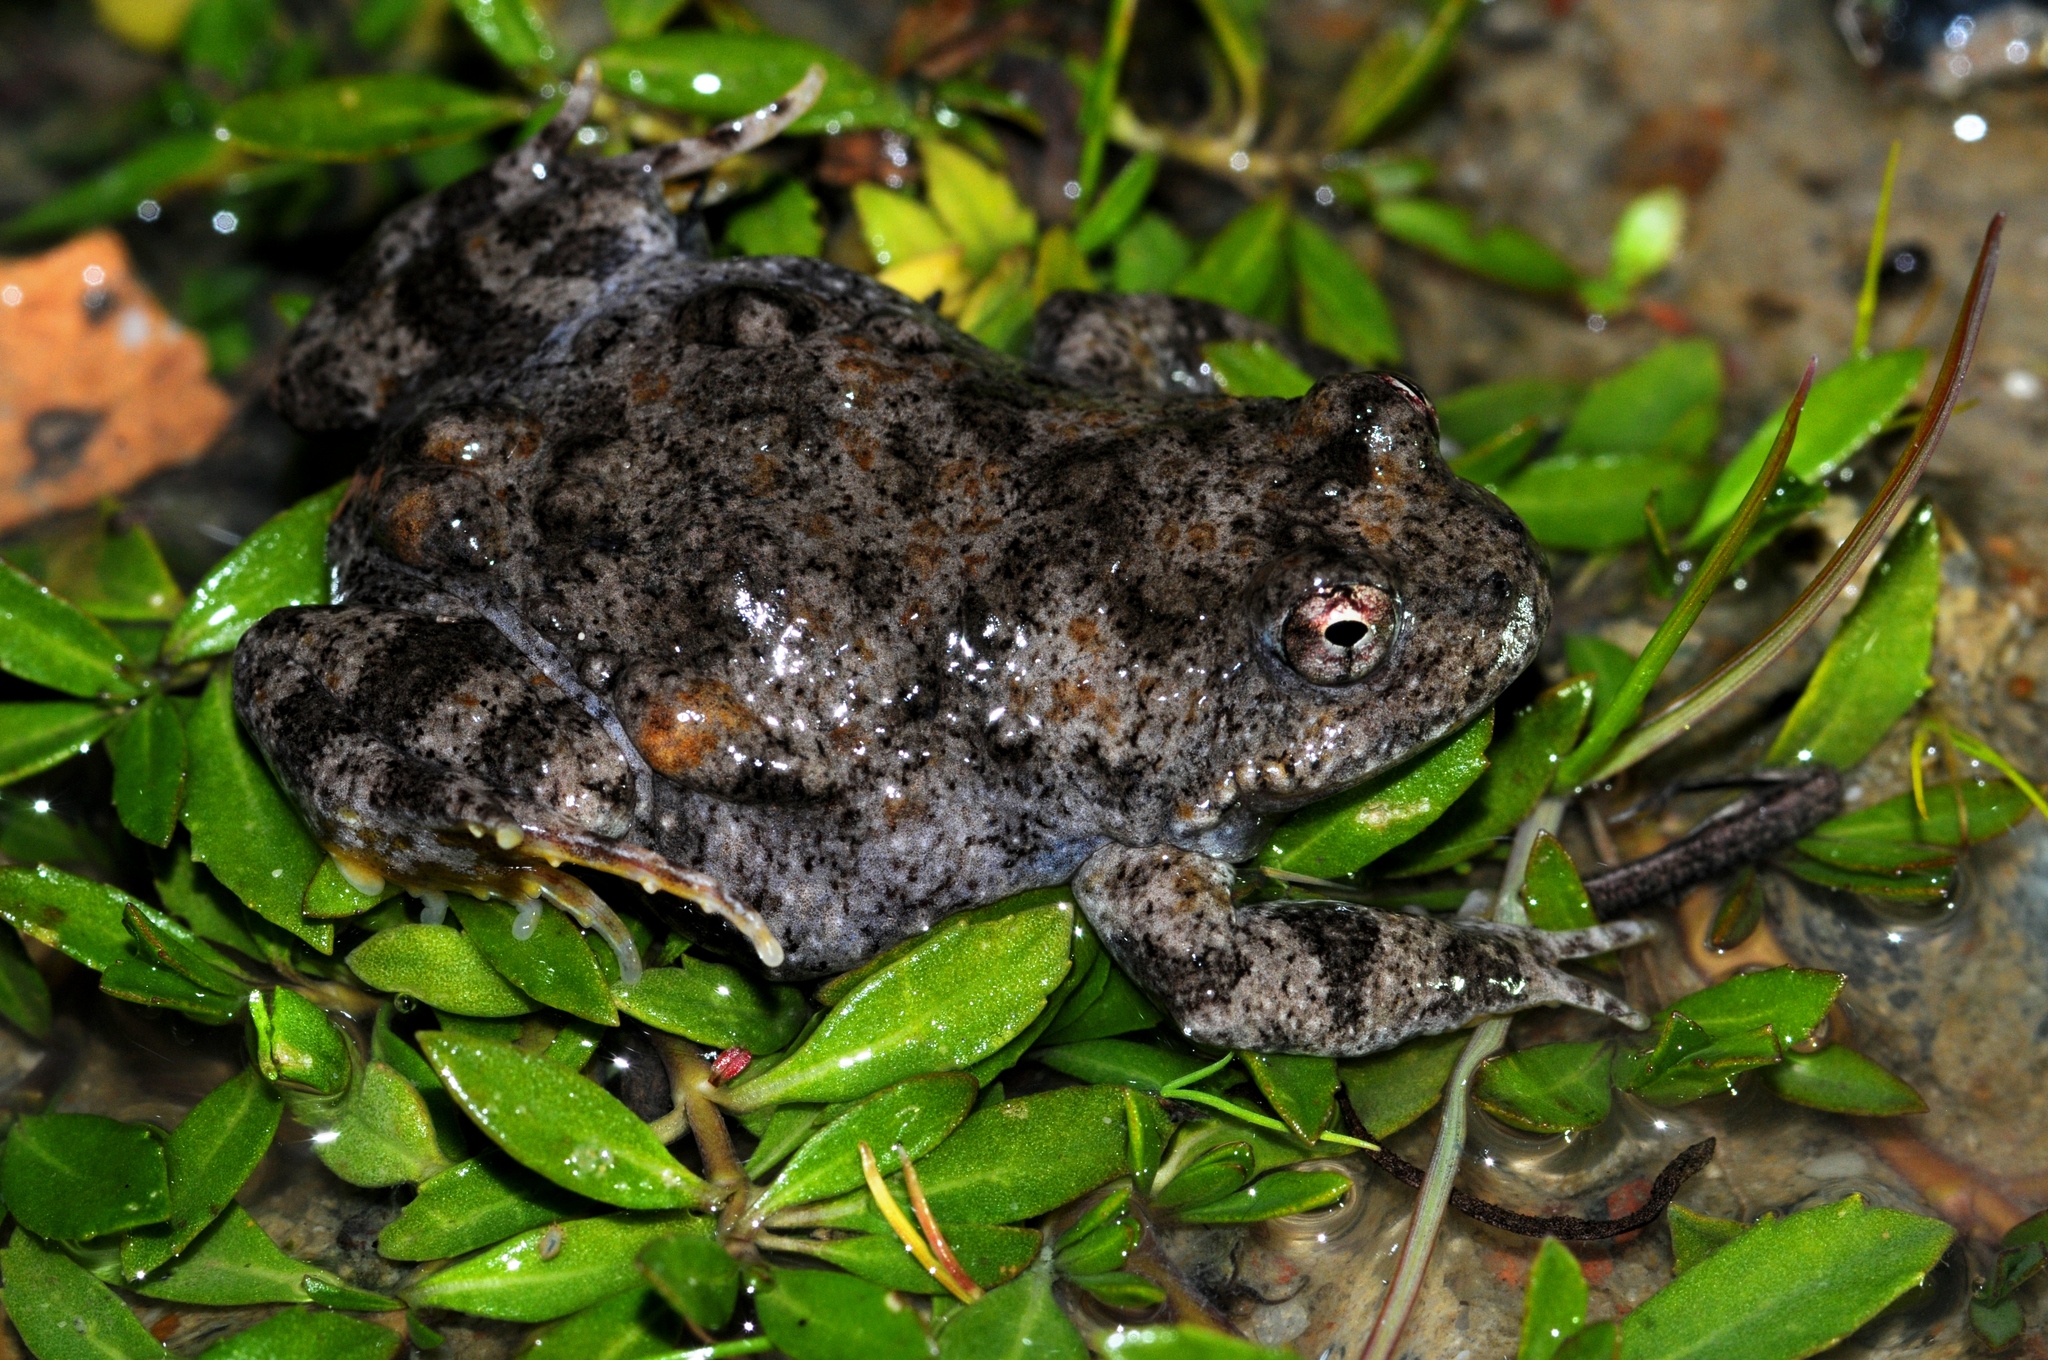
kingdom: Animalia
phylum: Chordata
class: Amphibia
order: Anura
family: Pyxicephalidae
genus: Cacosternum
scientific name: Cacosternum capense
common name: Cape dainty frog
